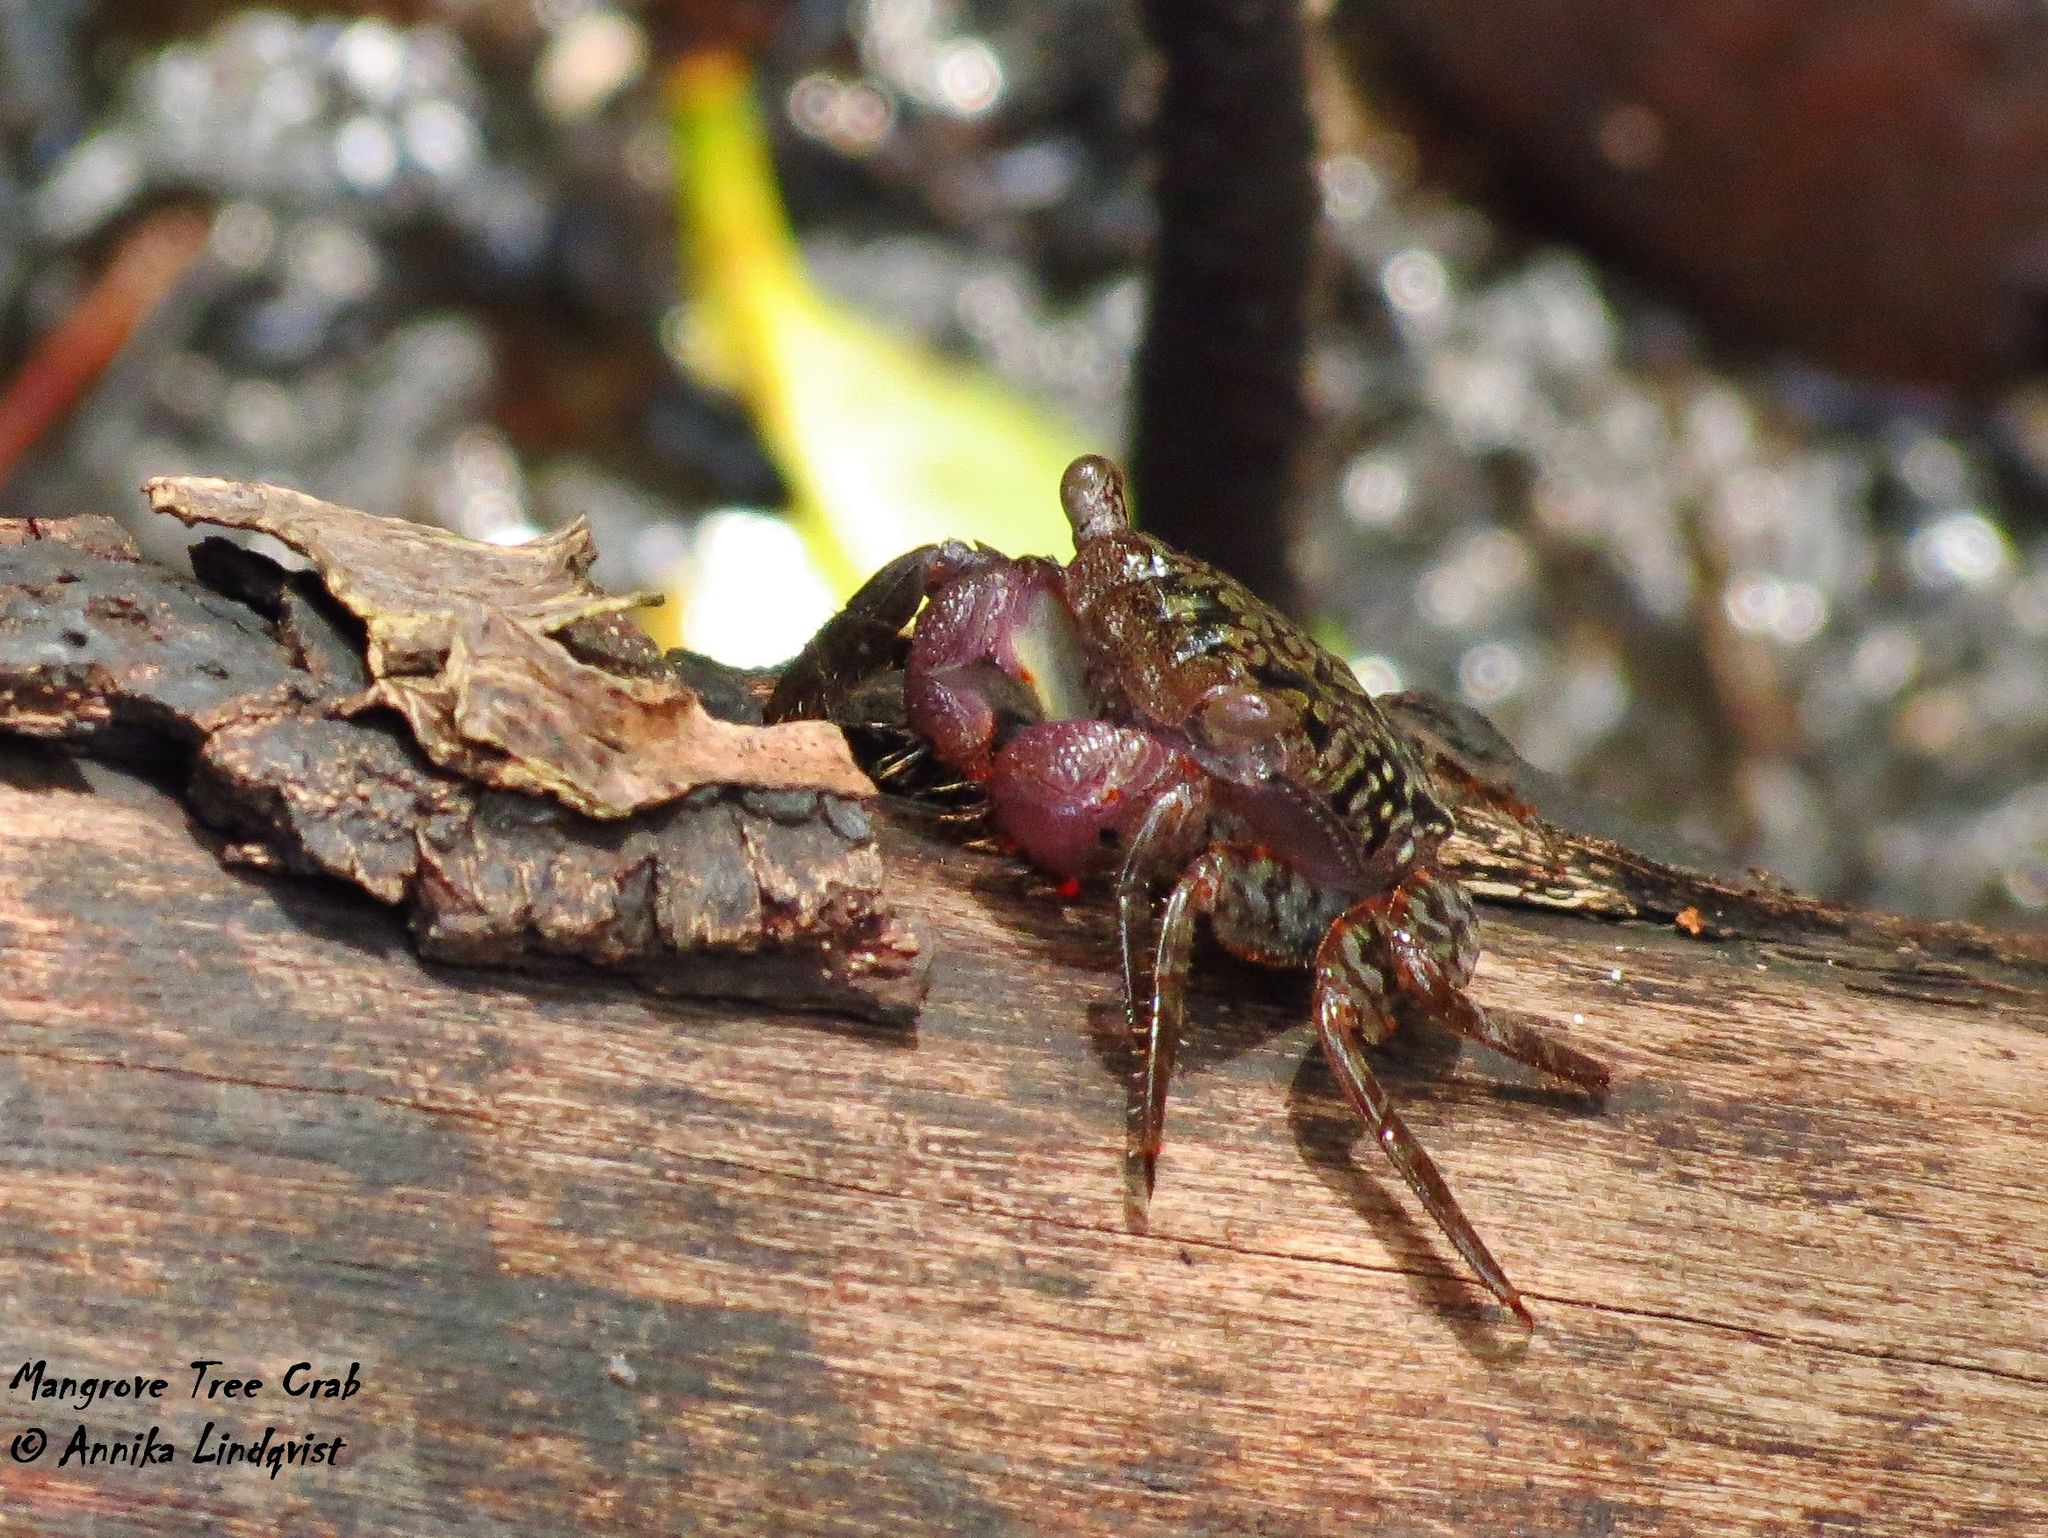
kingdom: Animalia
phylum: Arthropoda
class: Malacostraca
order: Decapoda
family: Sesarmidae
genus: Aratus
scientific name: Aratus pisonii
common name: Mangrove crab
